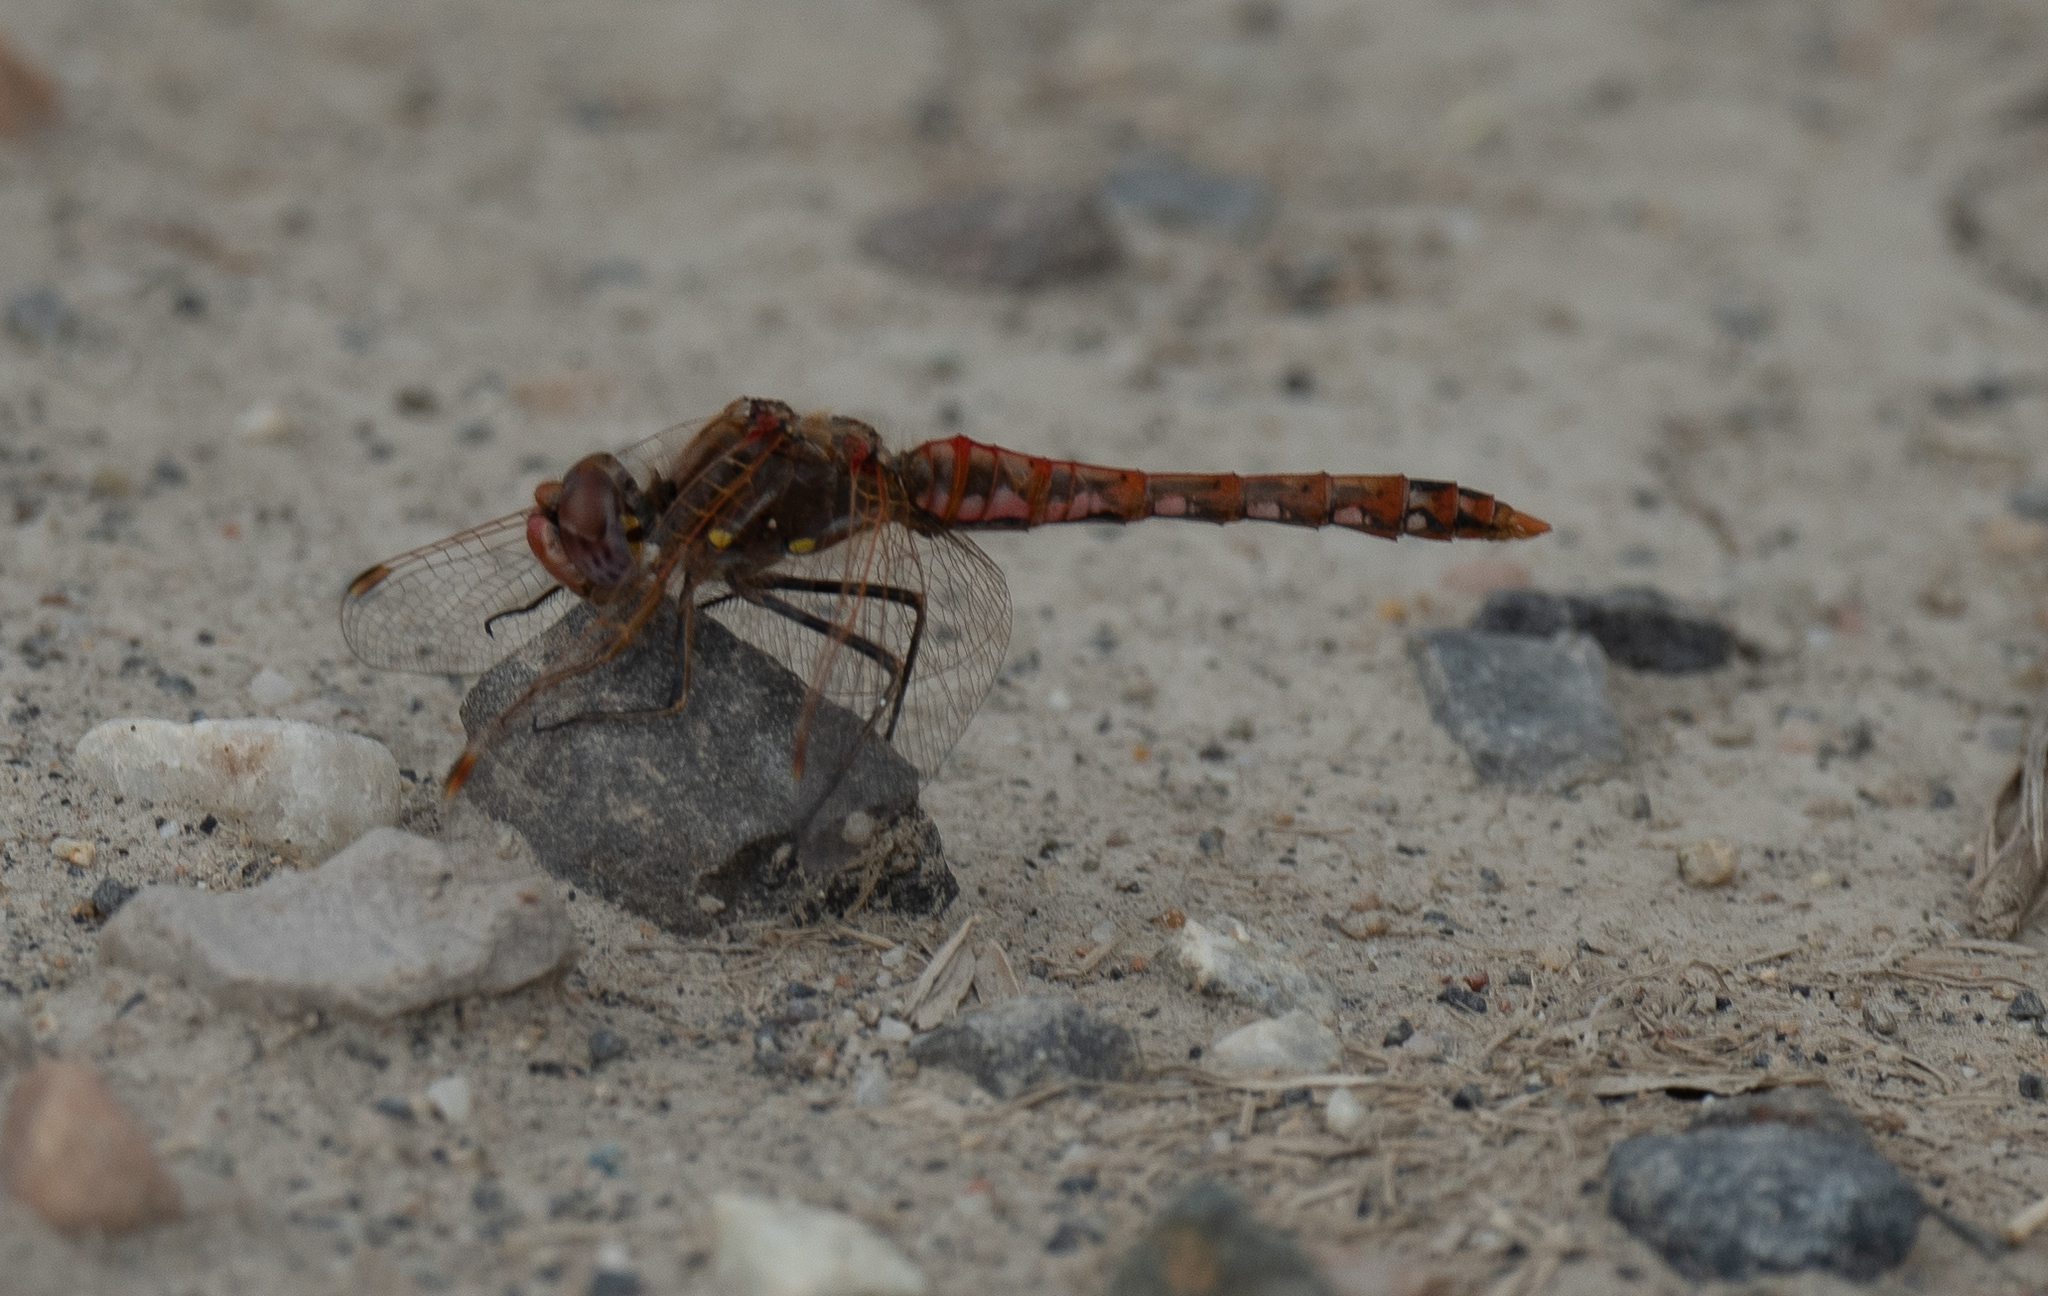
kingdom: Animalia
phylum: Arthropoda
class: Insecta
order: Odonata
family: Libellulidae
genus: Sympetrum
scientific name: Sympetrum corruptum
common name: Variegated meadowhawk
